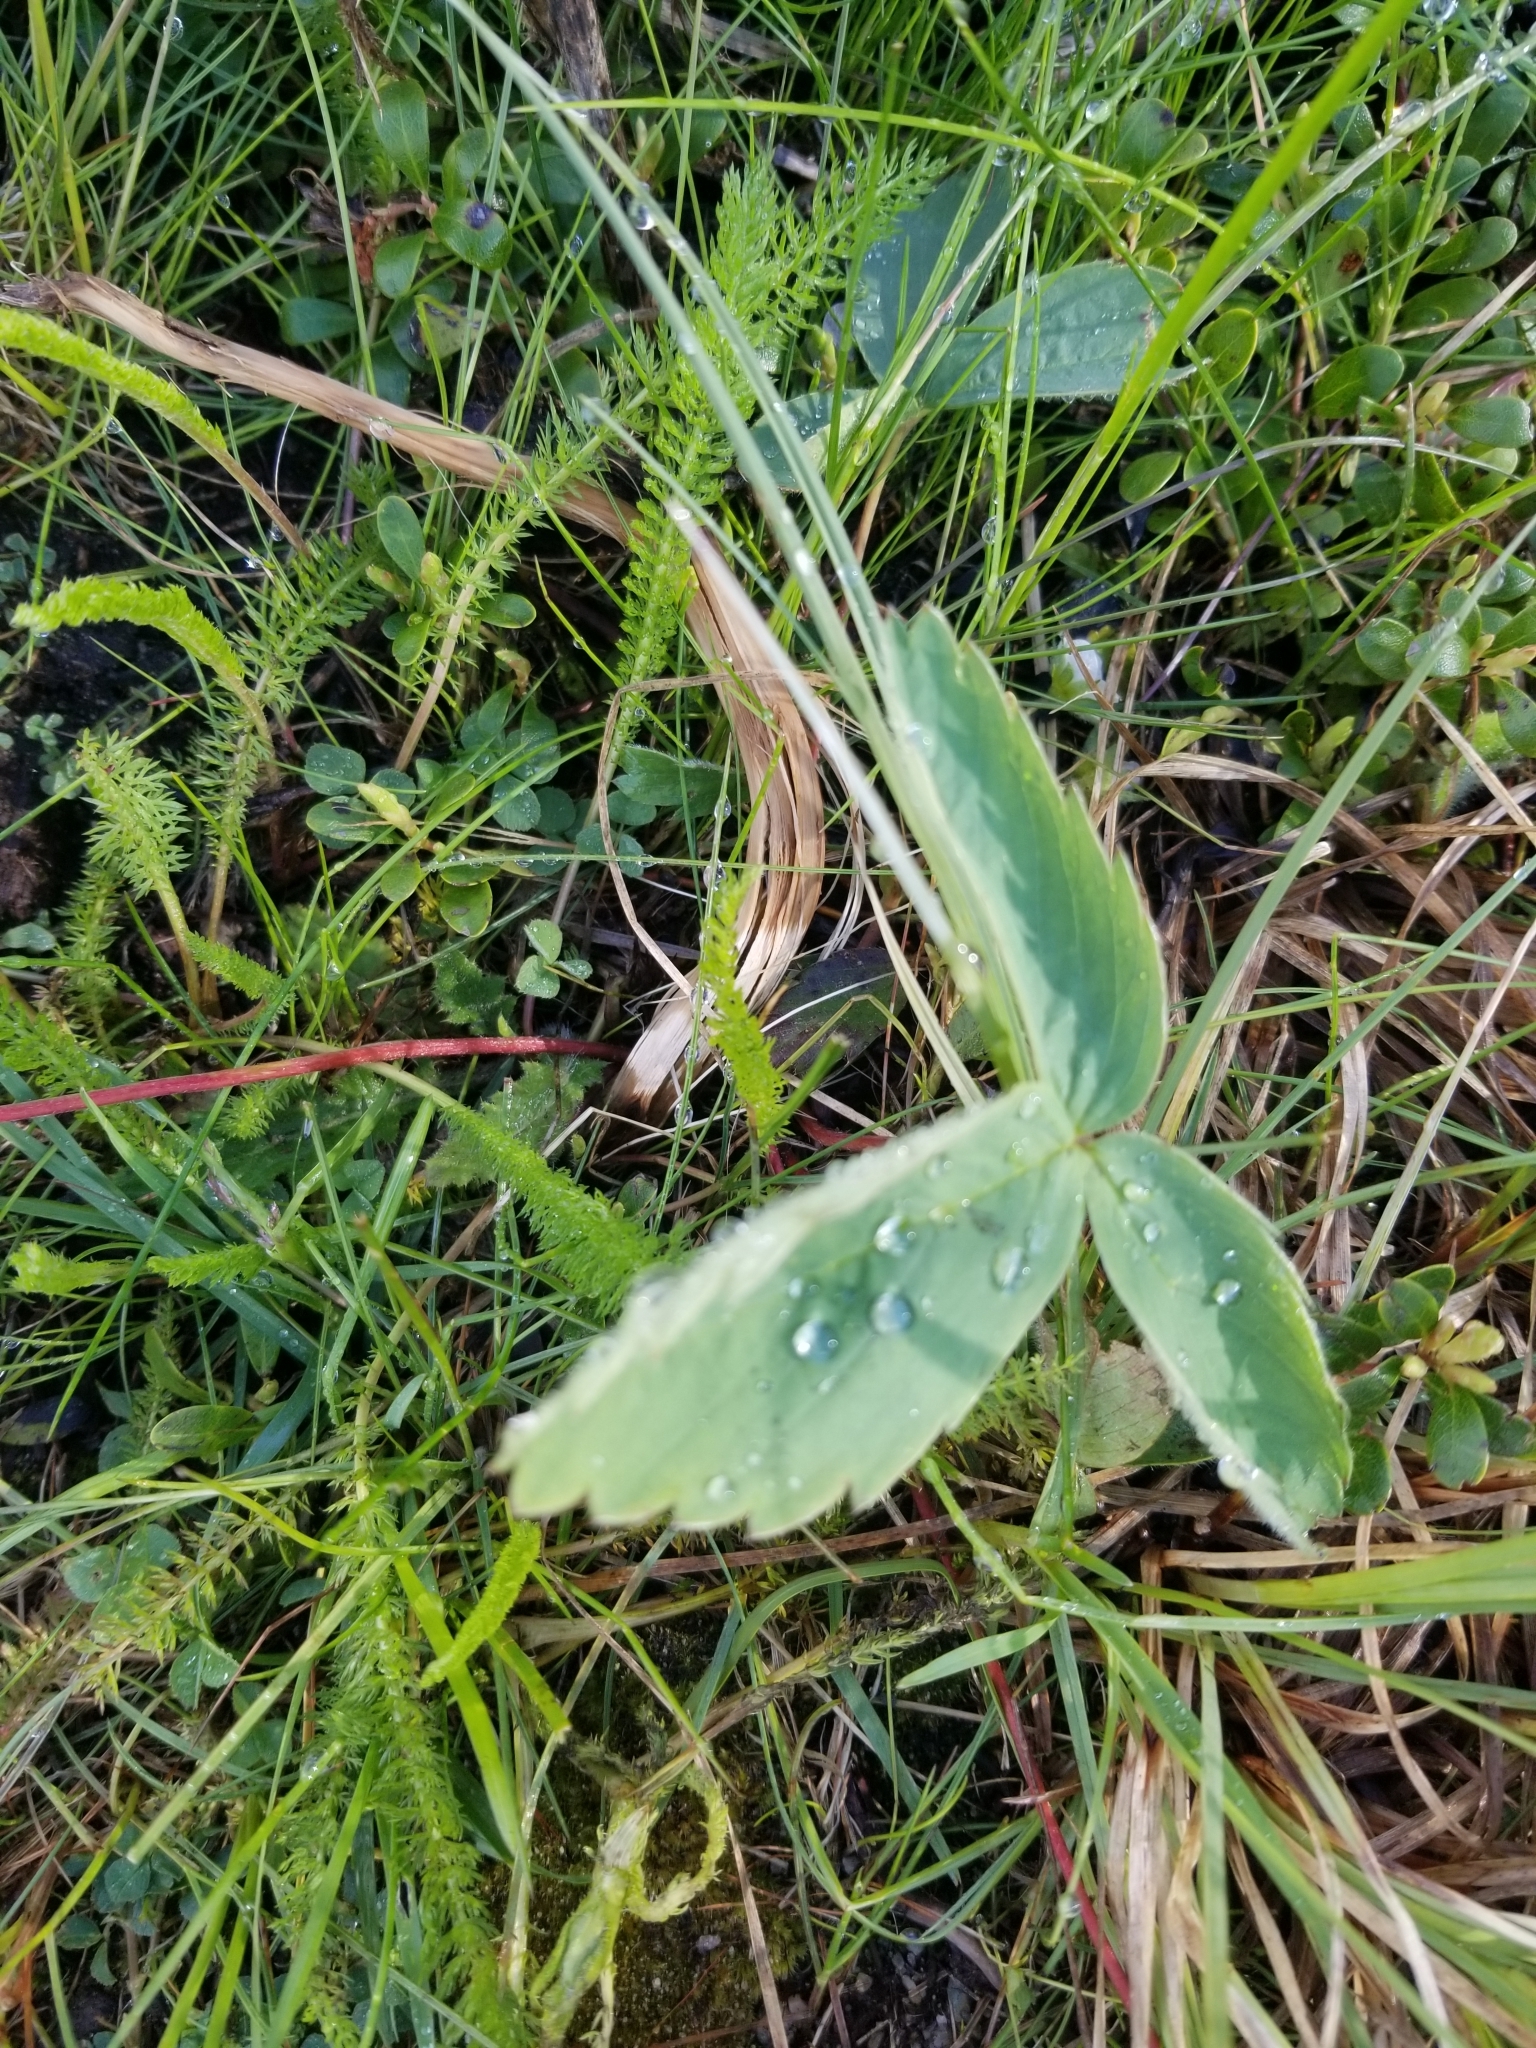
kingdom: Plantae
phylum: Tracheophyta
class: Magnoliopsida
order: Rosales
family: Rosaceae
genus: Fragaria
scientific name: Fragaria virginiana
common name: Thickleaved wild strawberry
